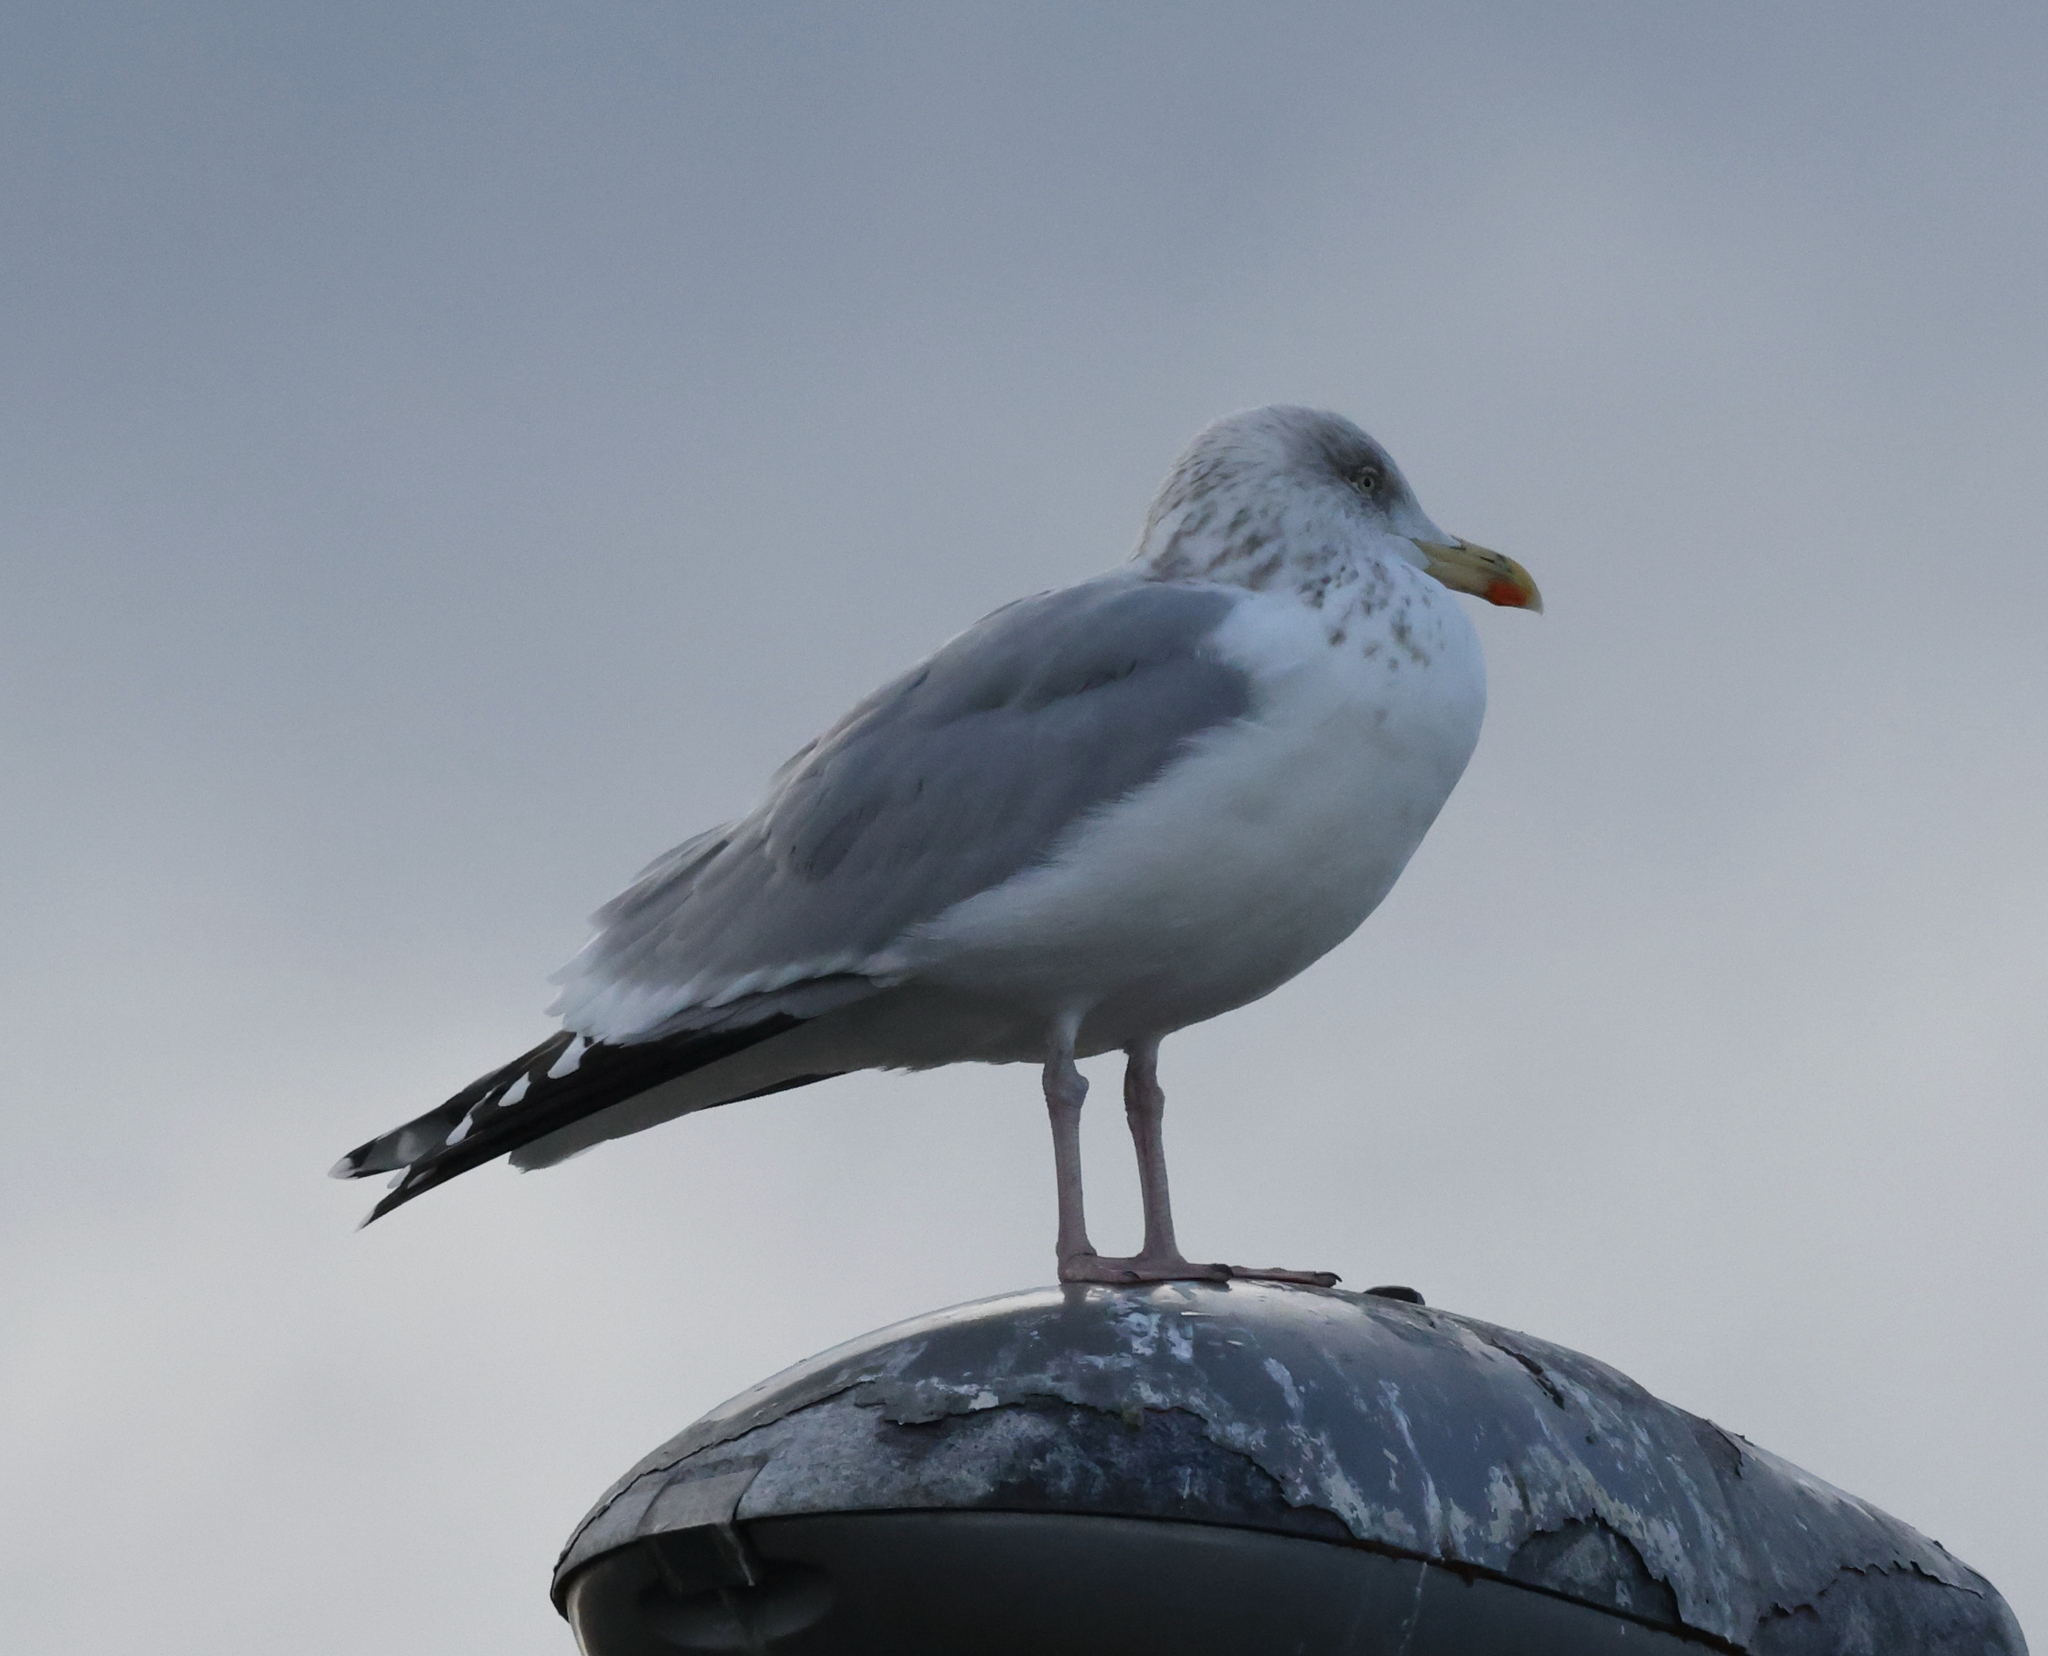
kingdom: Animalia
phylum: Chordata
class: Aves
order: Charadriiformes
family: Laridae
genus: Larus
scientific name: Larus argentatus
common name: Herring gull
